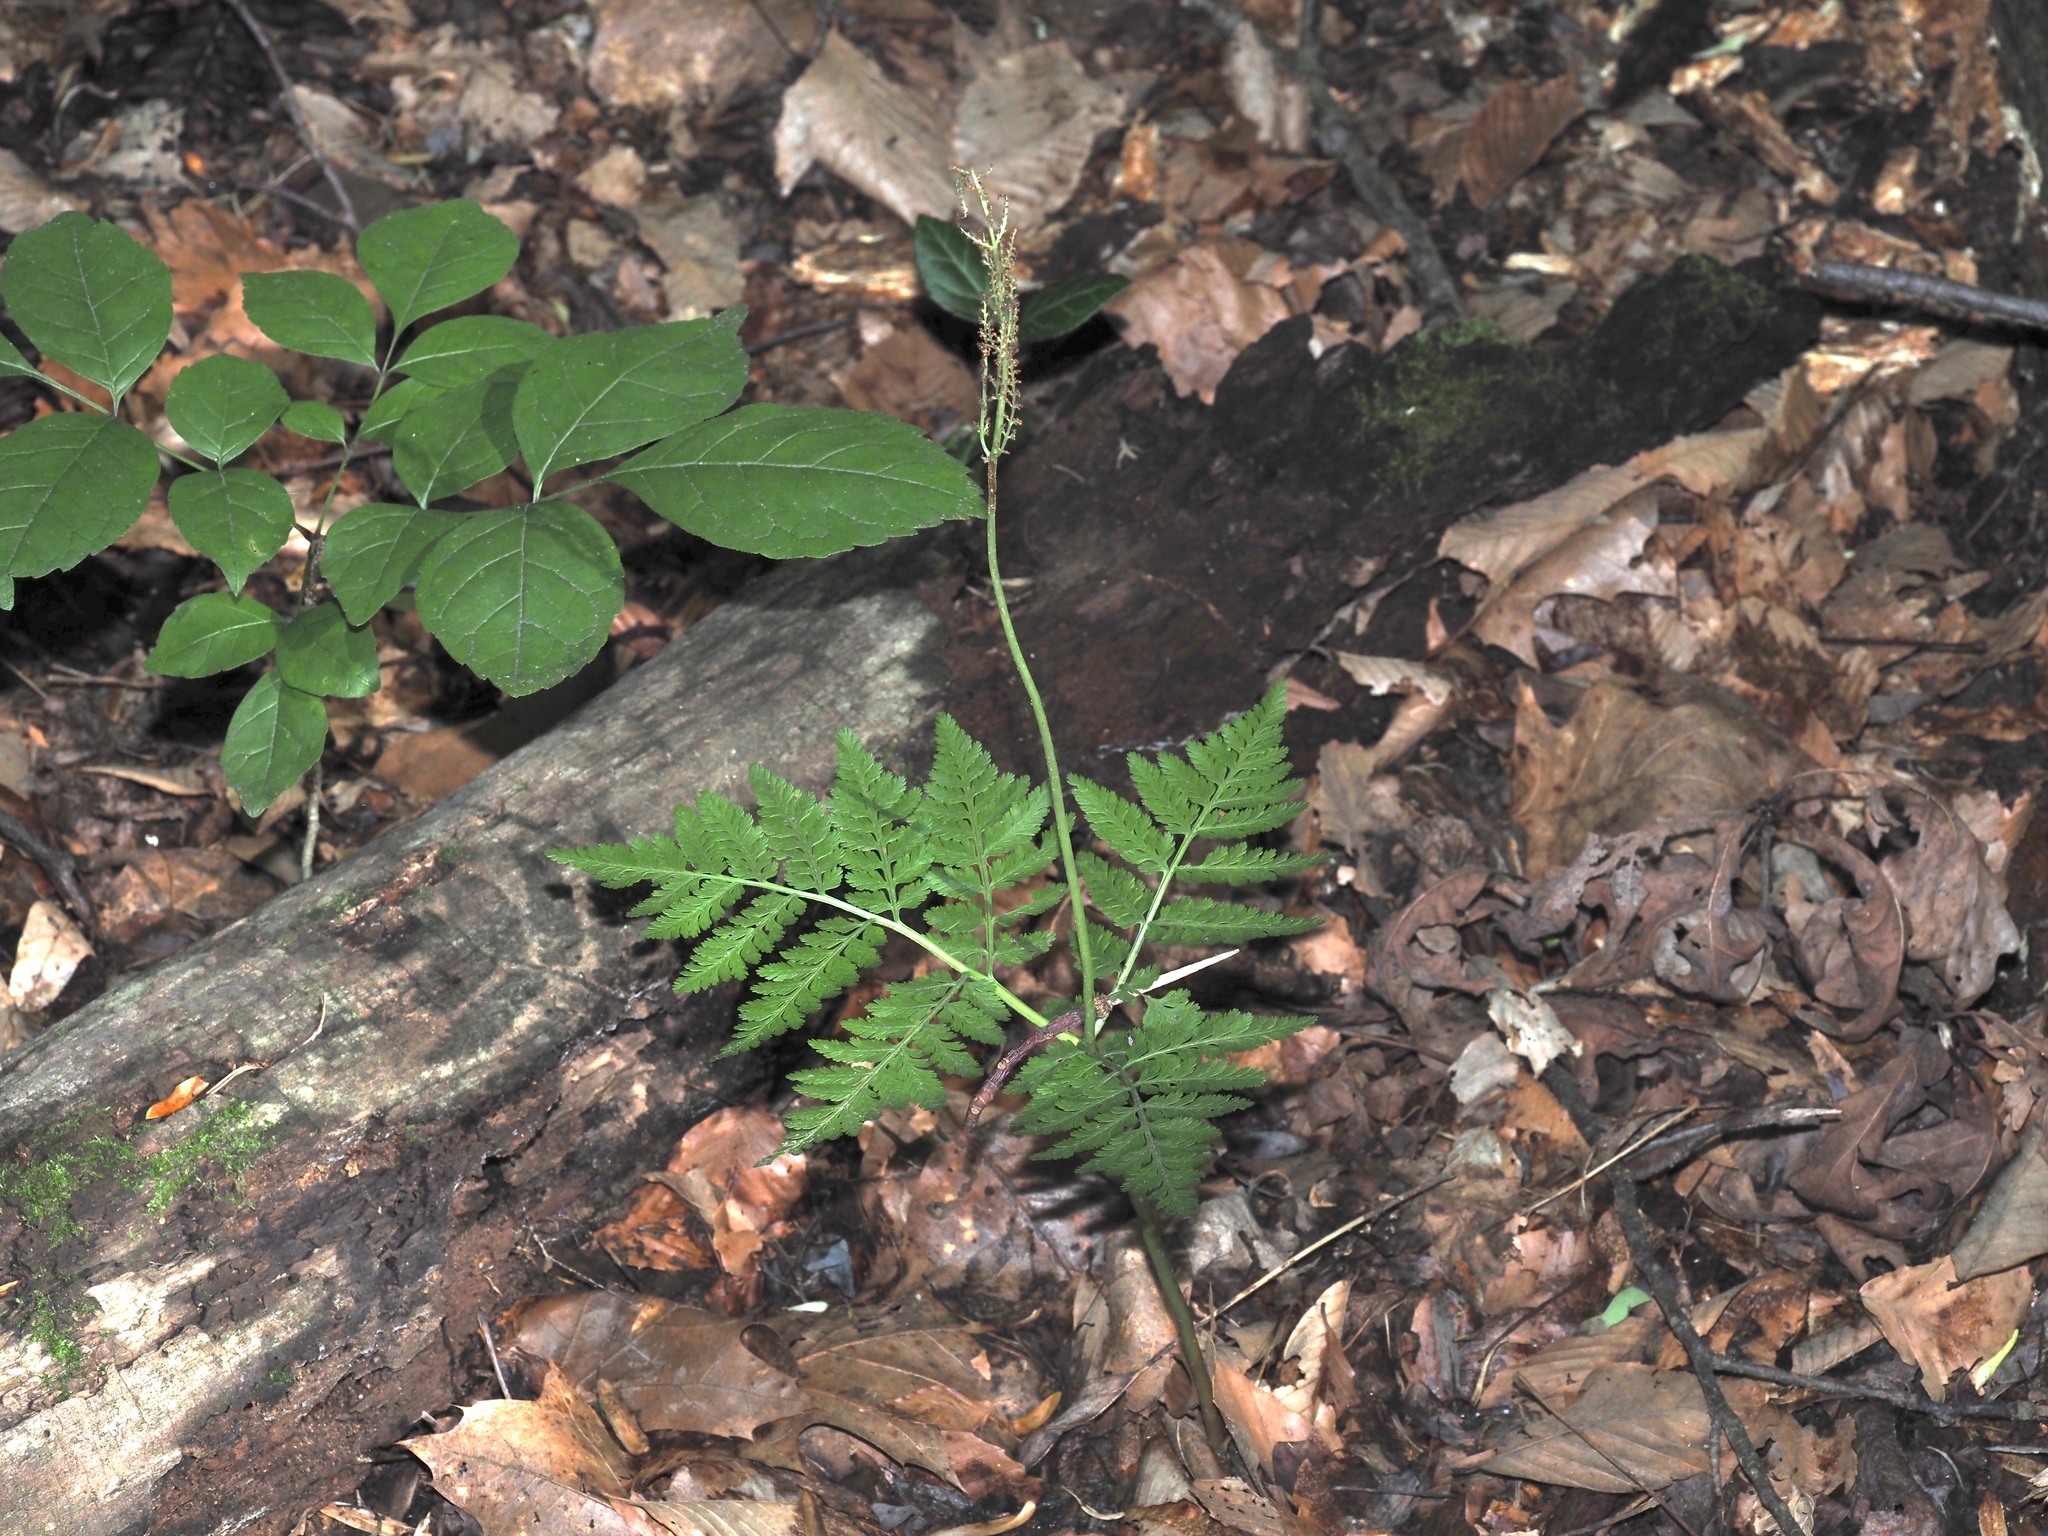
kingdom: Plantae
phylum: Tracheophyta
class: Polypodiopsida
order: Ophioglossales
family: Ophioglossaceae
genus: Botrypus
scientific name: Botrypus virginianus
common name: Common grapefern
